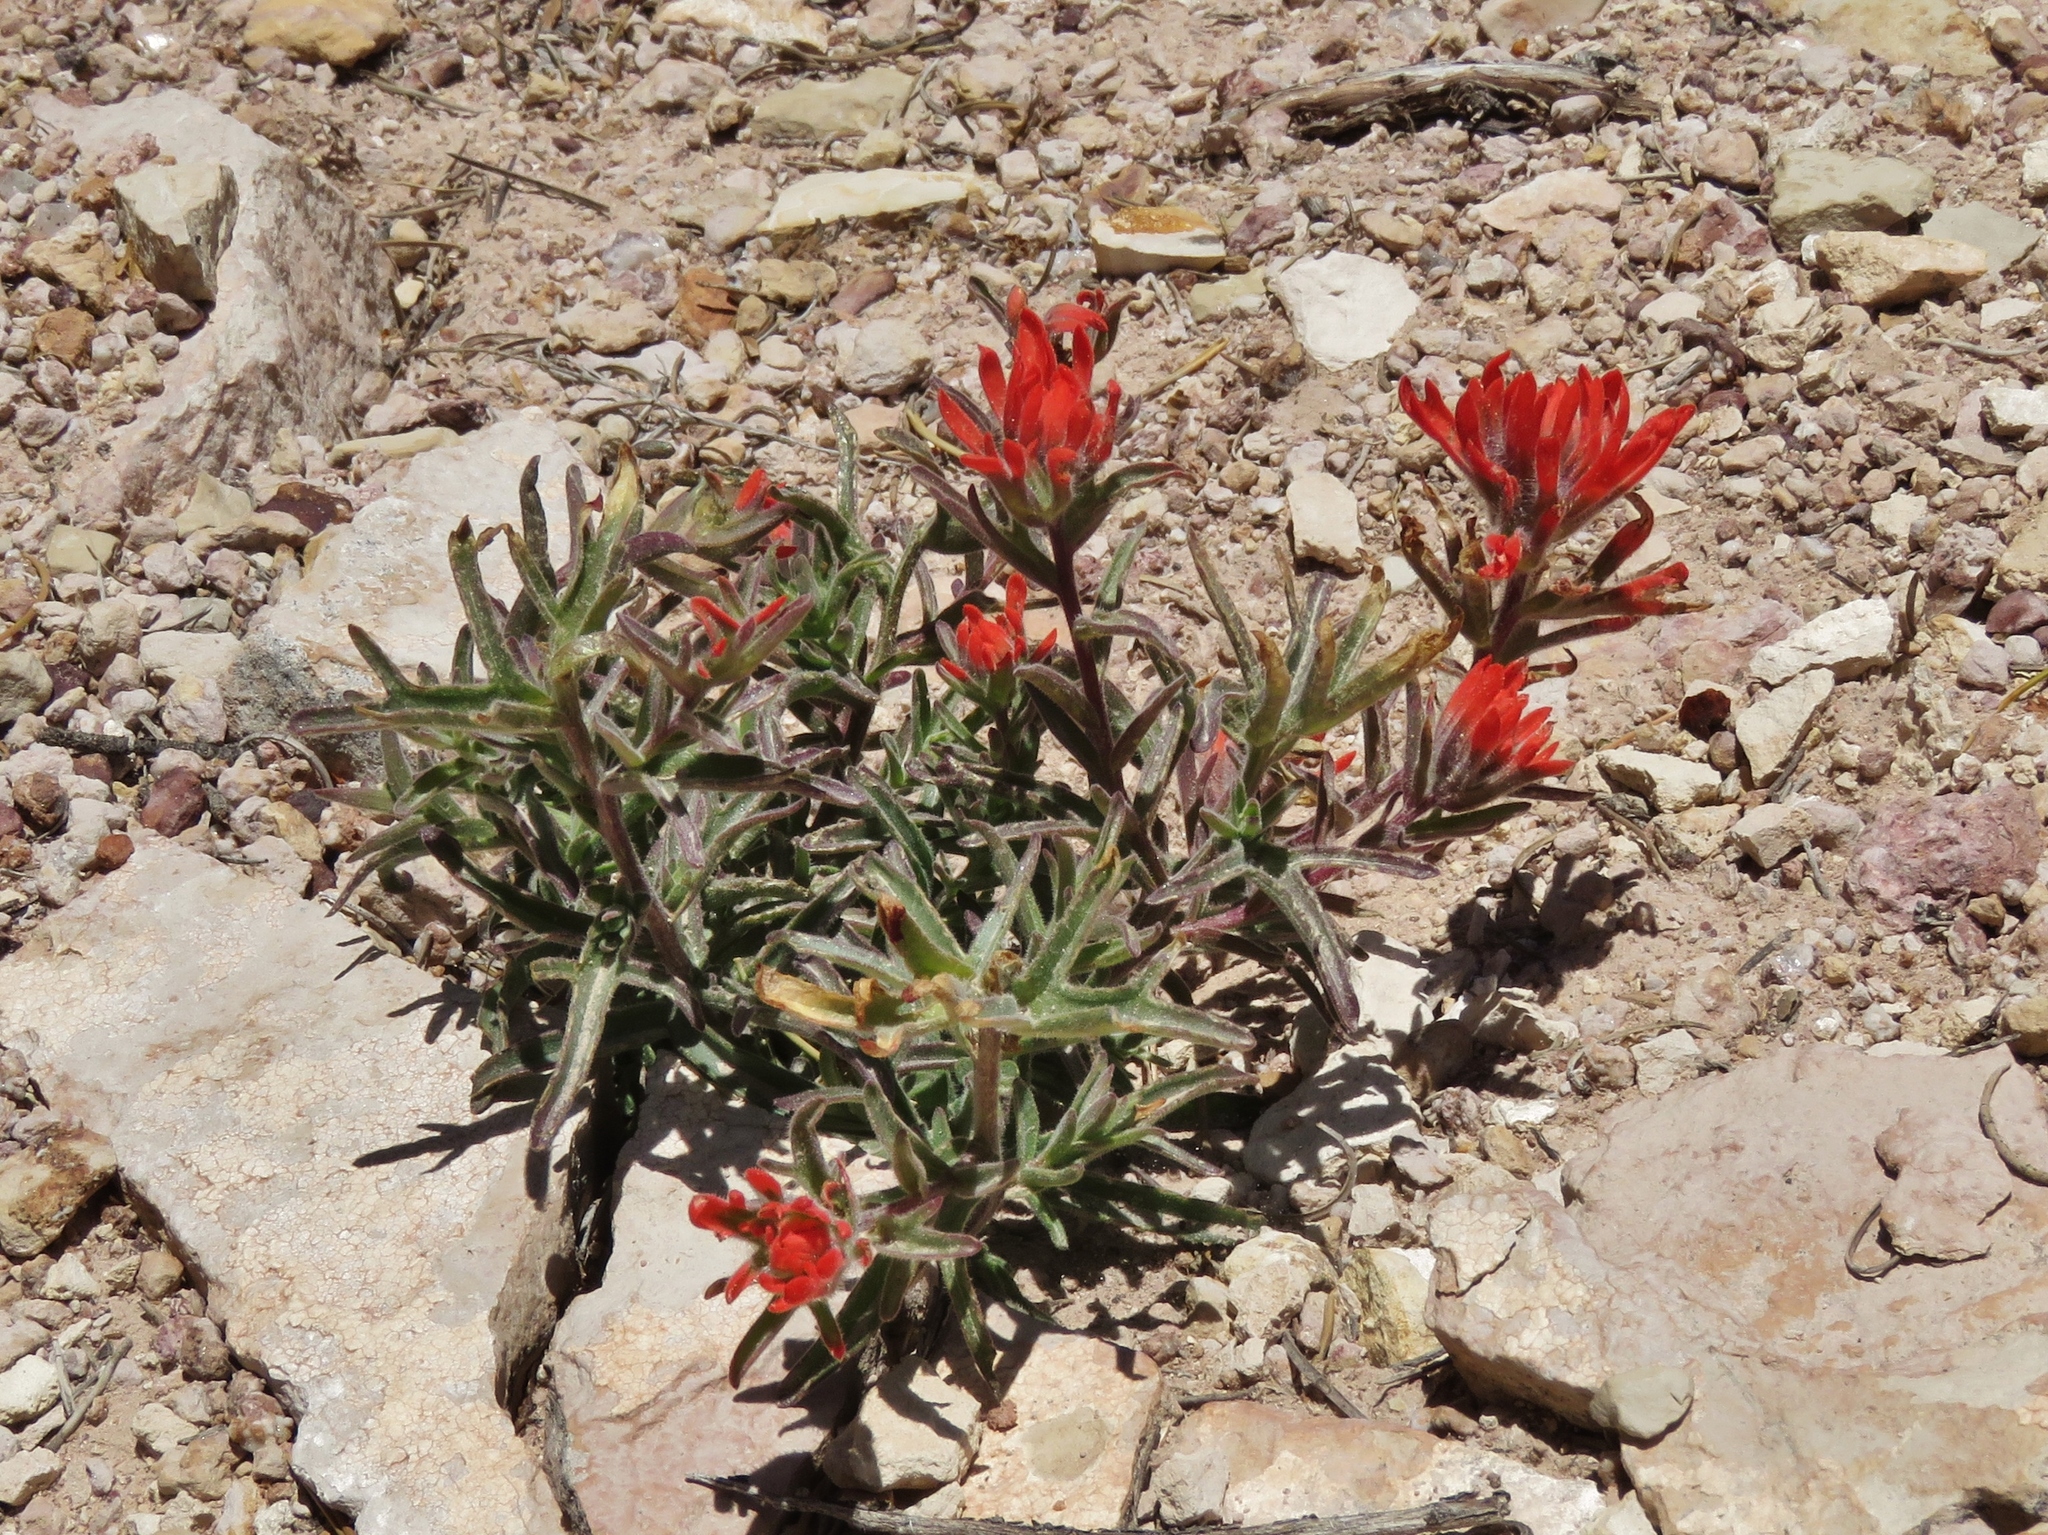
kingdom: Plantae
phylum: Tracheophyta
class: Magnoliopsida
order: Lamiales
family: Orobanchaceae
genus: Castilleja
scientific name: Castilleja chromosa
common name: Desert paintbrush
